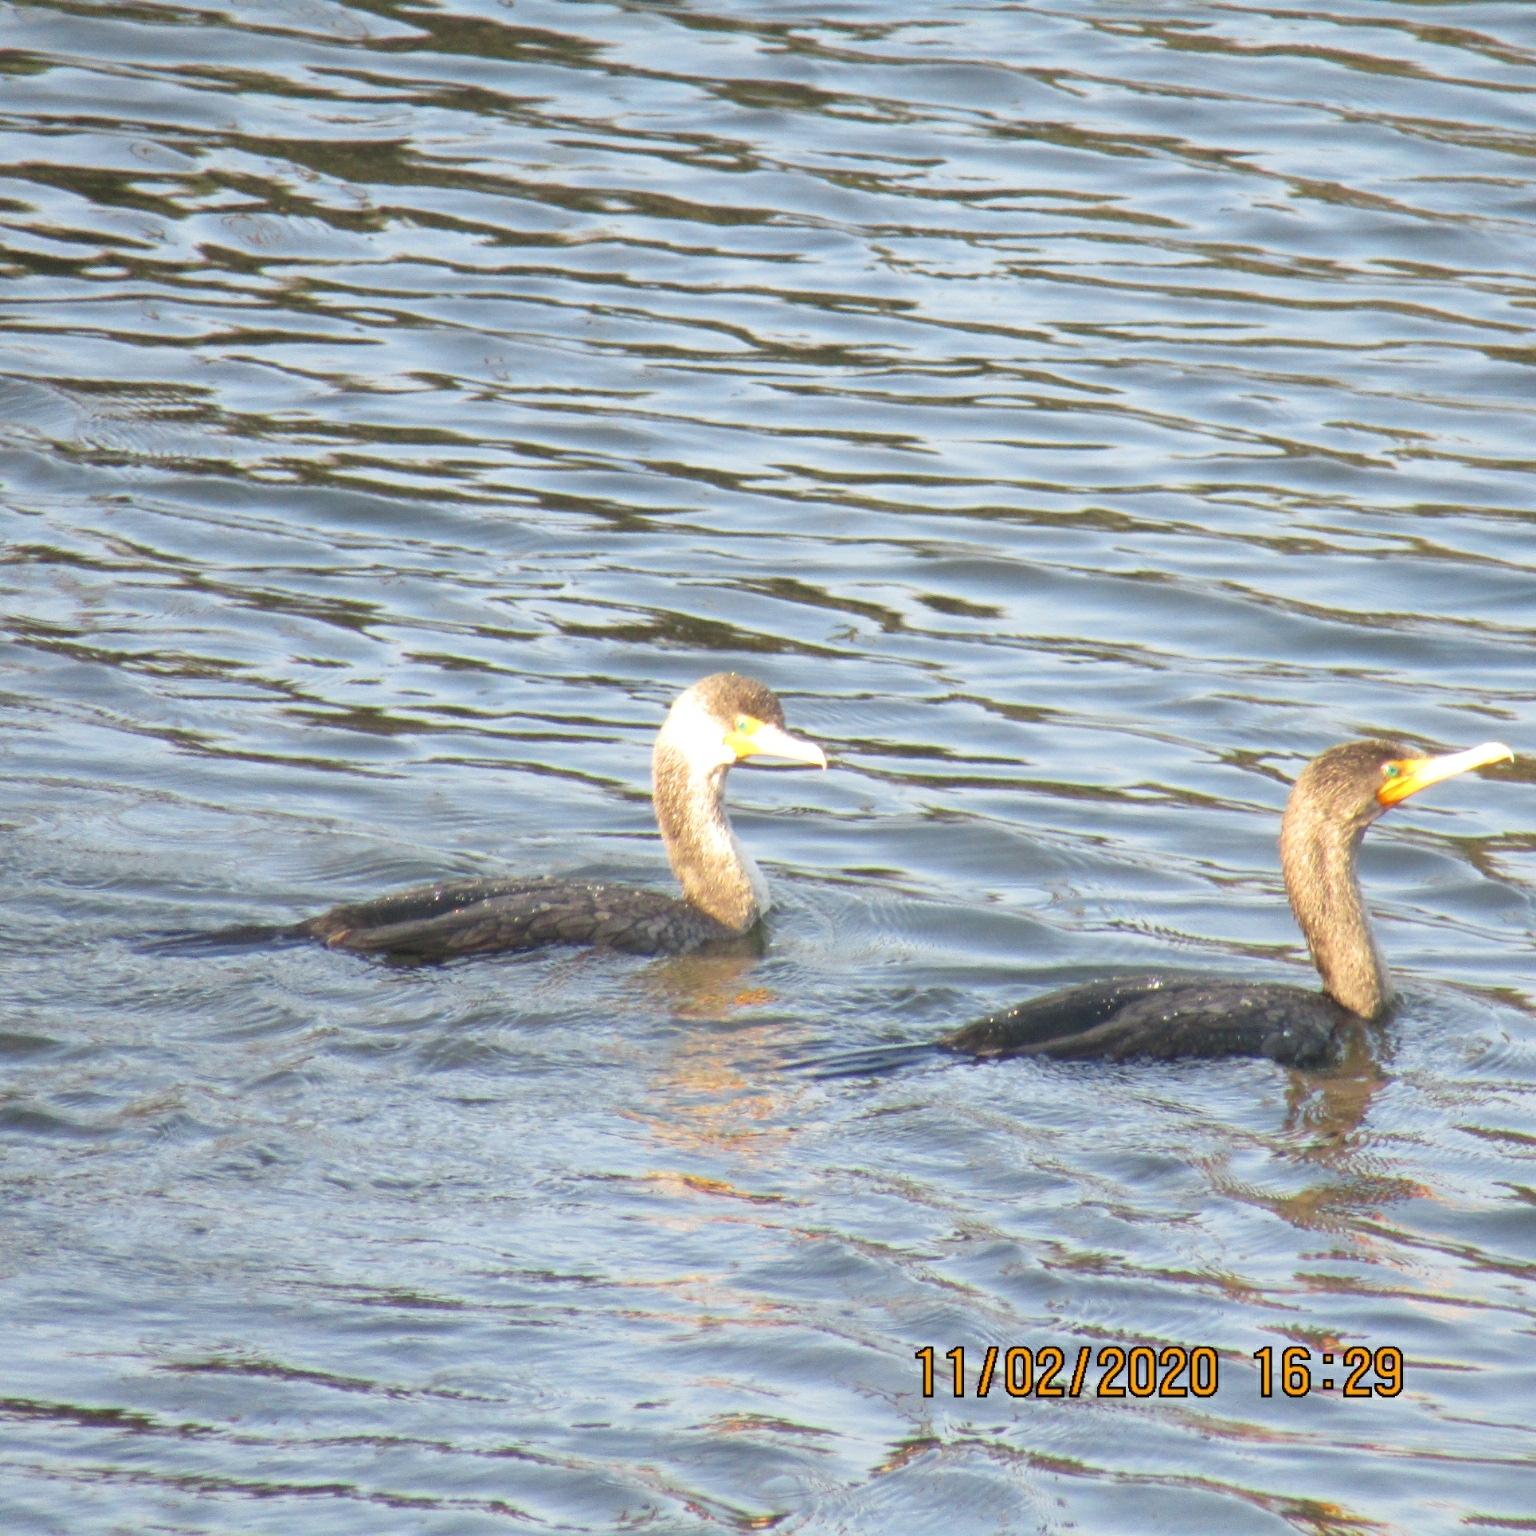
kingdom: Animalia
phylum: Chordata
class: Aves
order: Suliformes
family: Phalacrocoracidae
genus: Phalacrocorax
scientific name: Phalacrocorax auritus
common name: Double-crested cormorant
